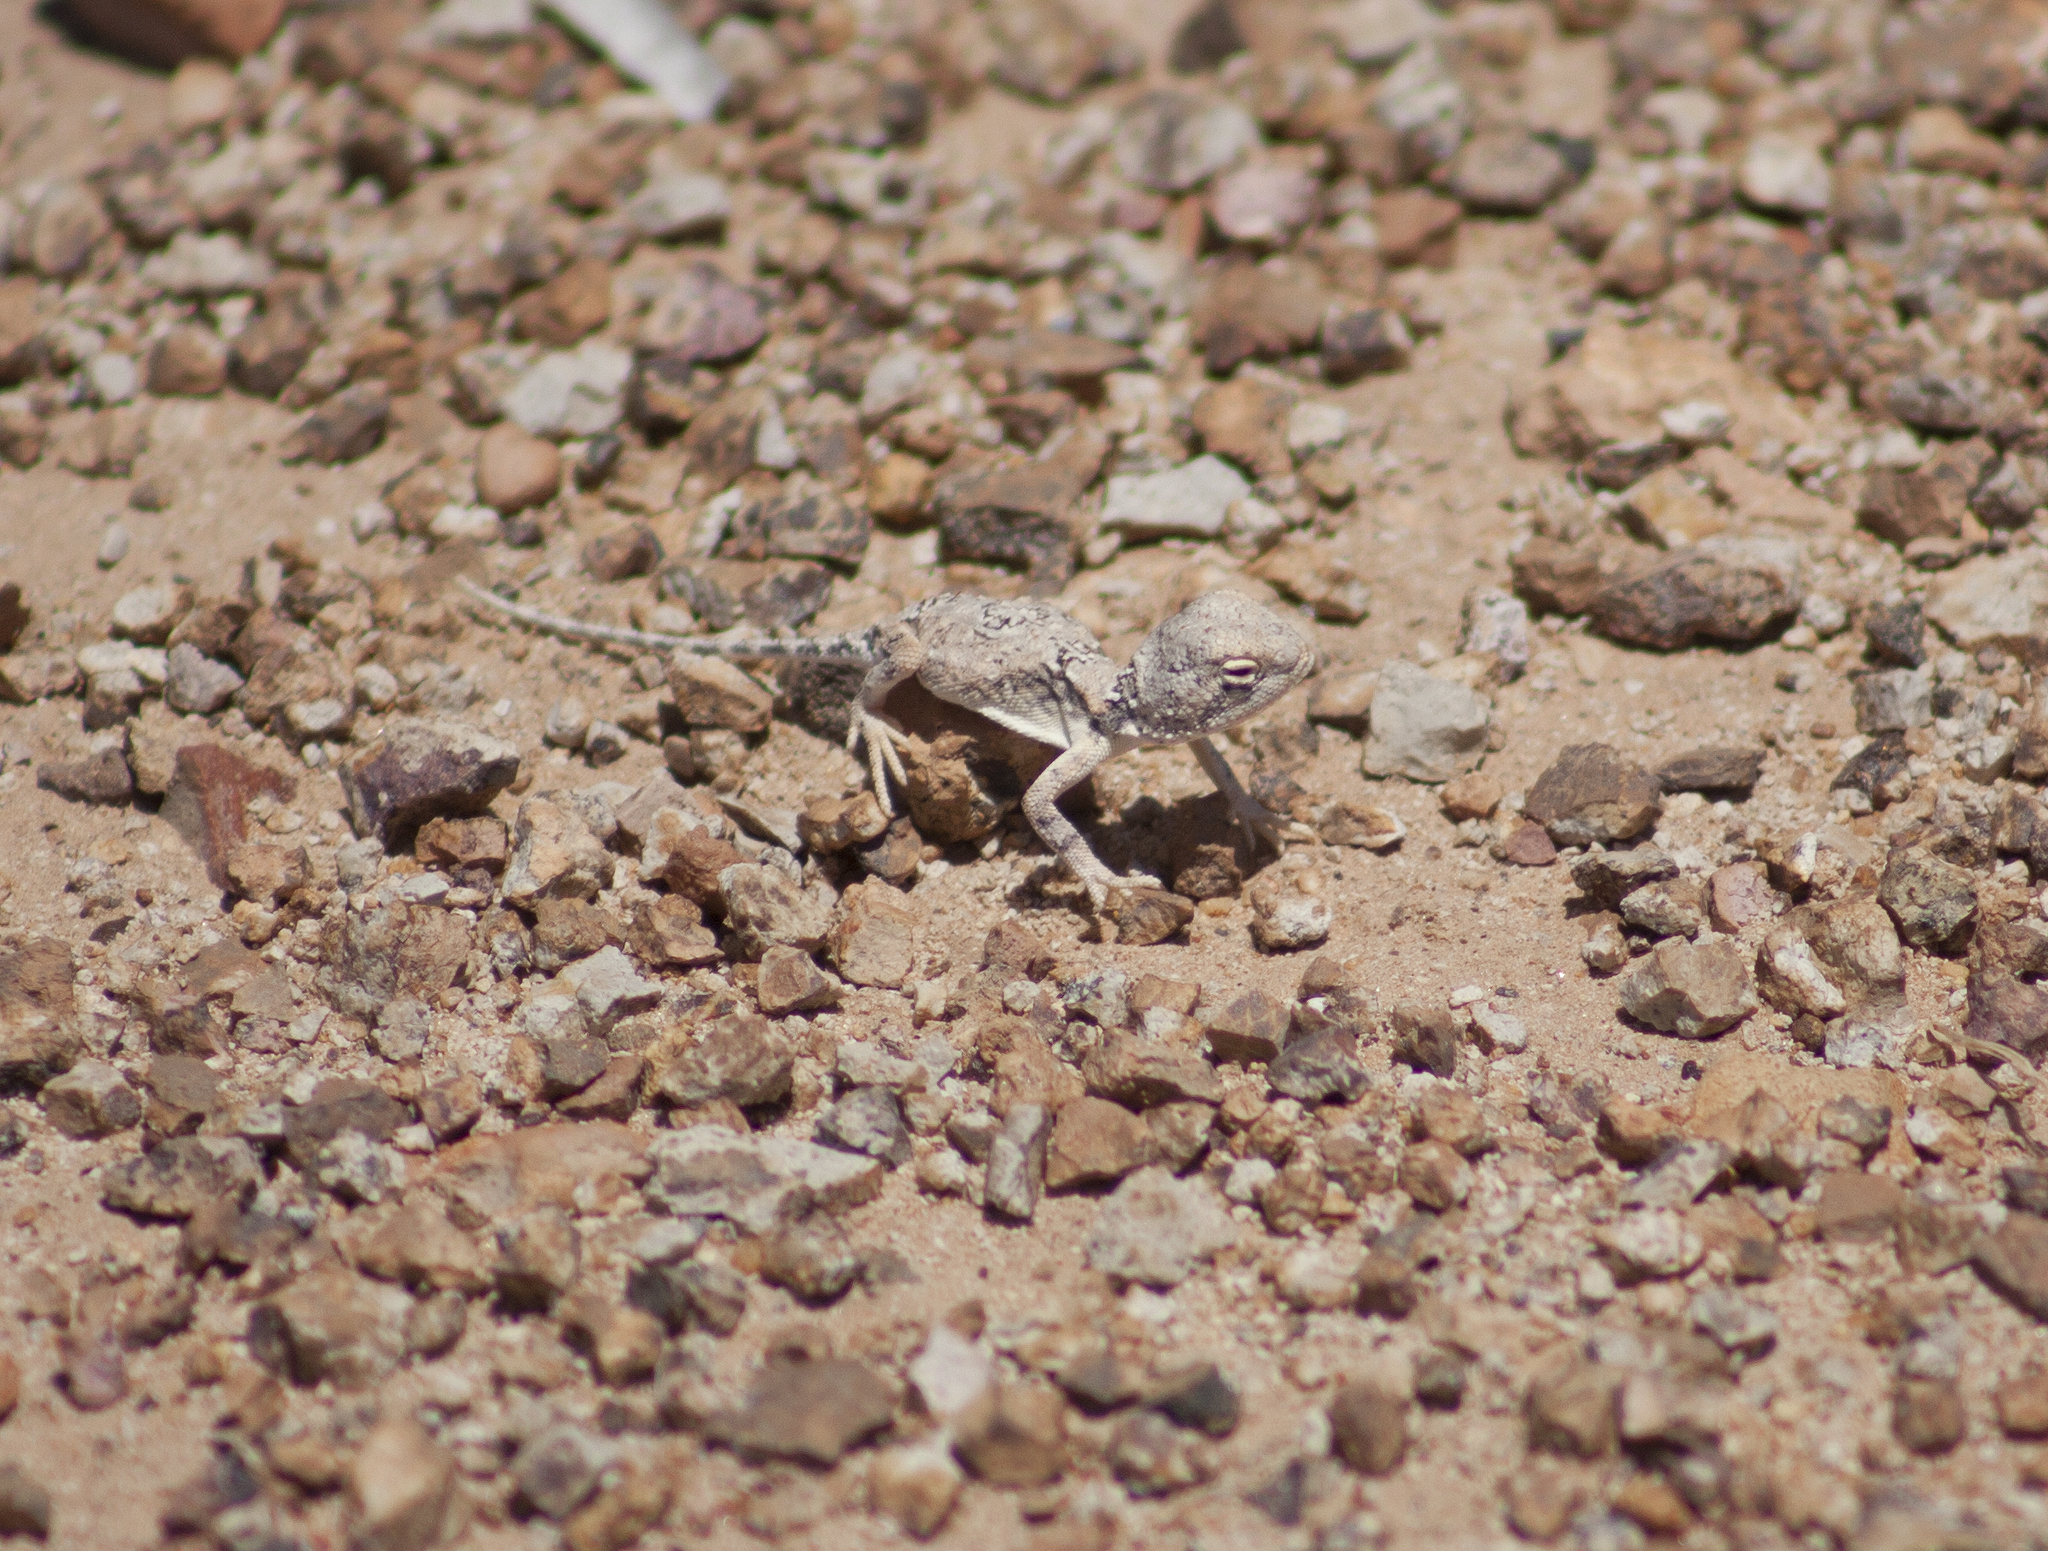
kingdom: Animalia
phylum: Chordata
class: Squamata
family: Agamidae
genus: Tympanocryptis
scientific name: Tympanocryptis intima
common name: Gibber earless dragon
